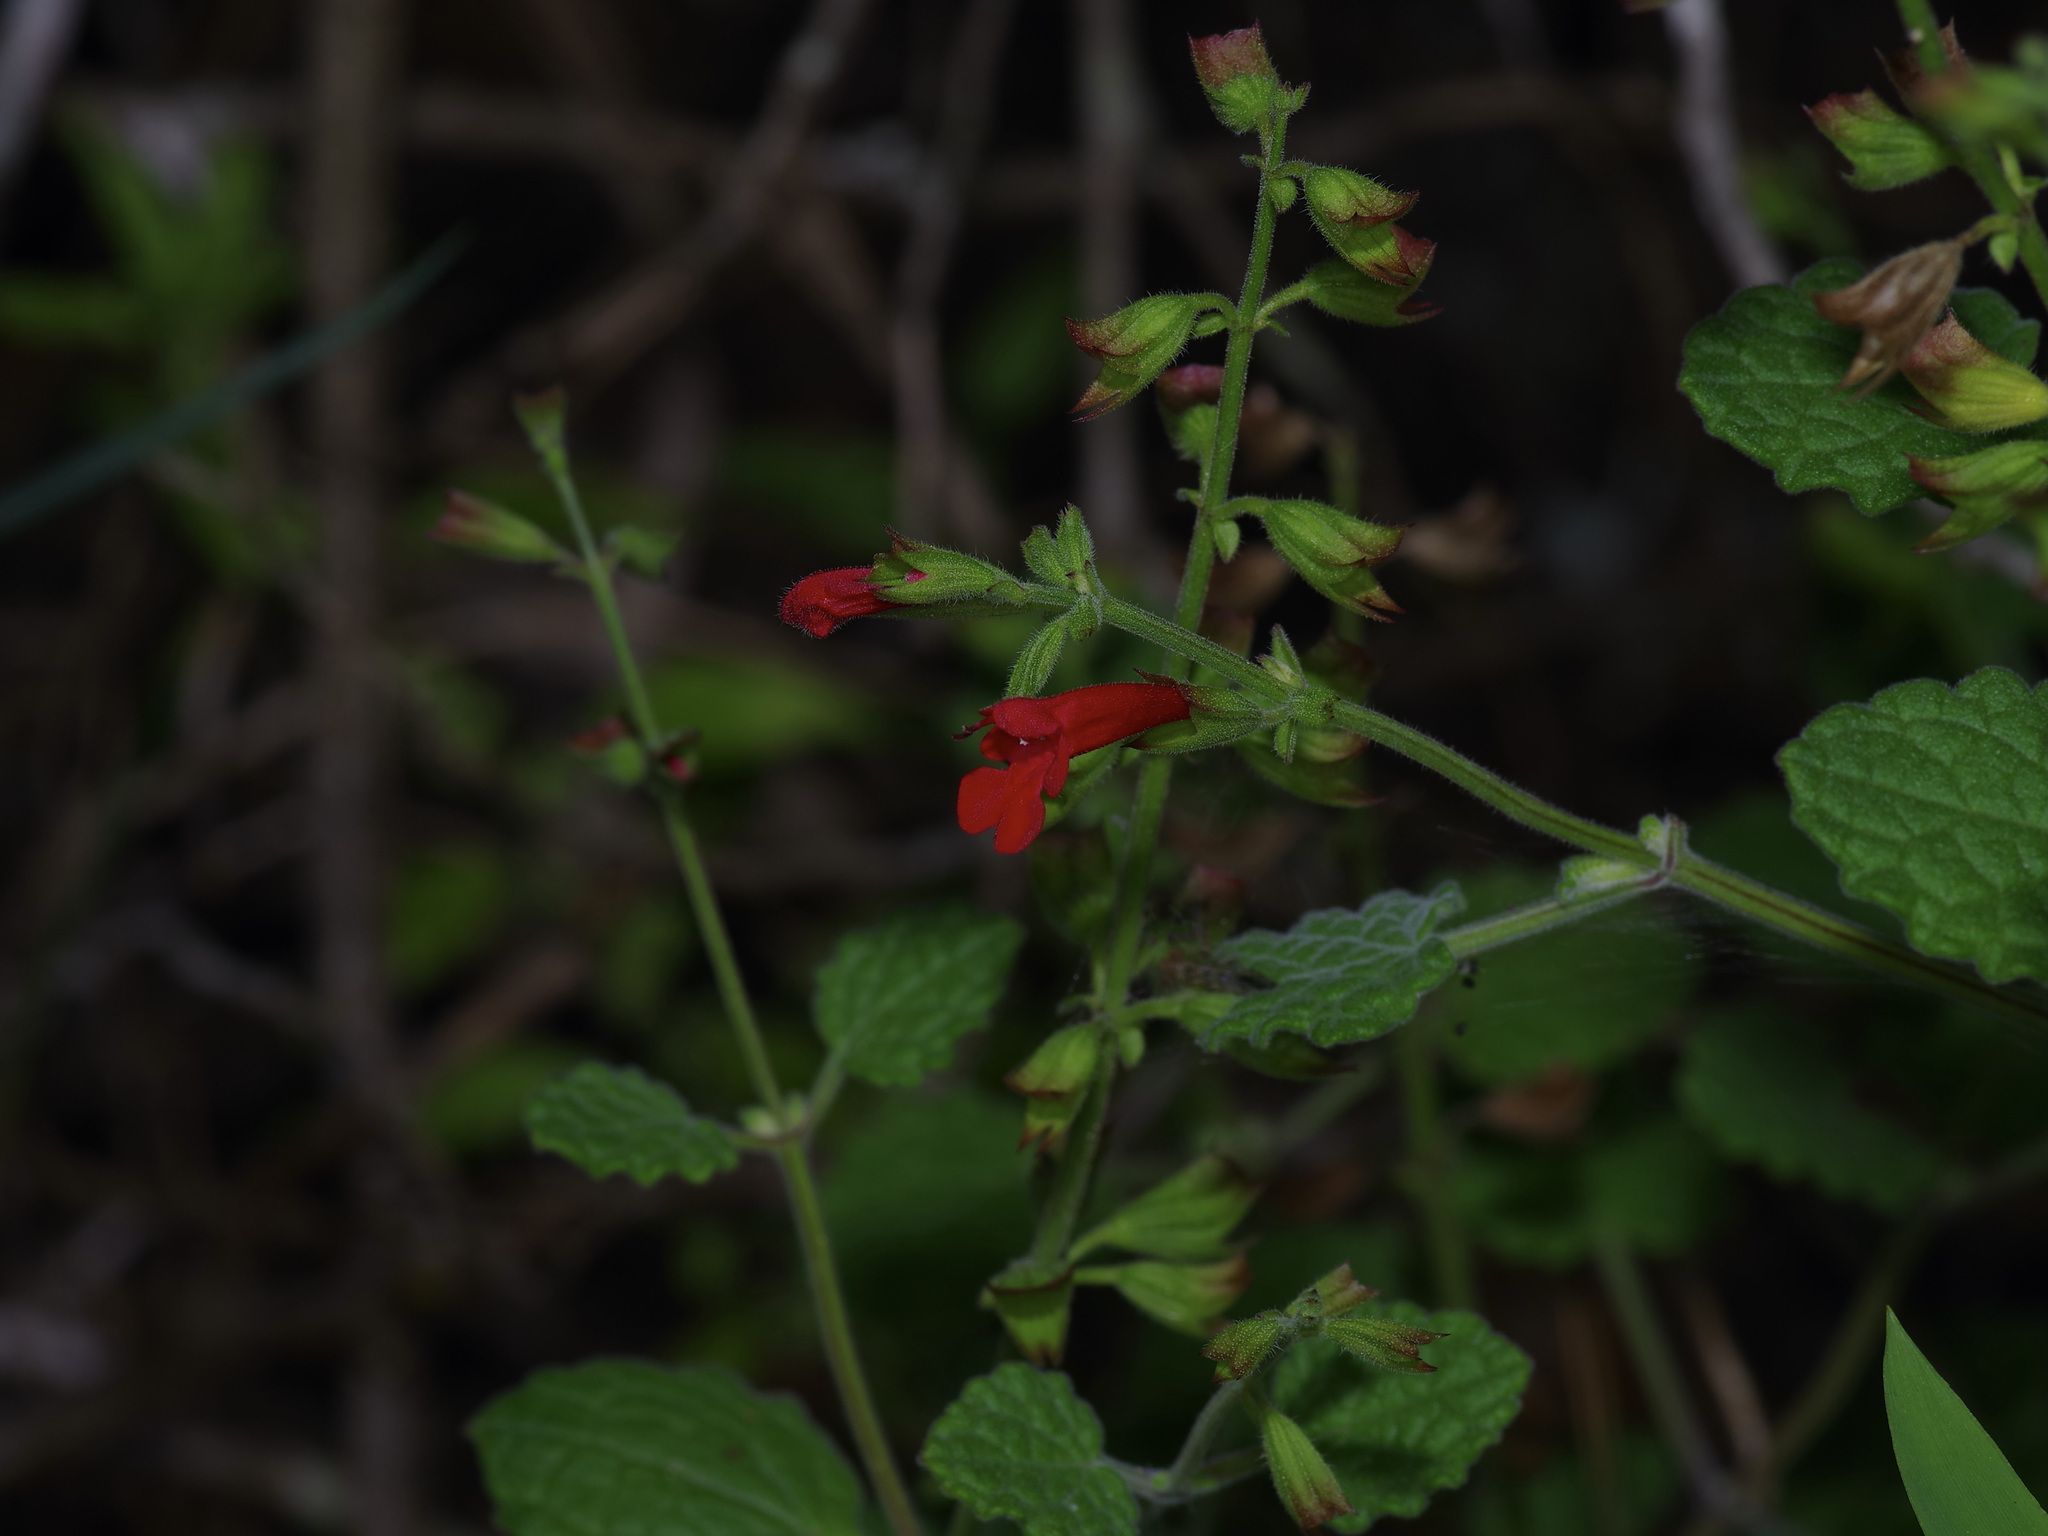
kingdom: Plantae
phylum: Tracheophyta
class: Magnoliopsida
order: Lamiales
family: Lamiaceae
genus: Salvia
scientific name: Salvia roemeriana
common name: Cedar sage
